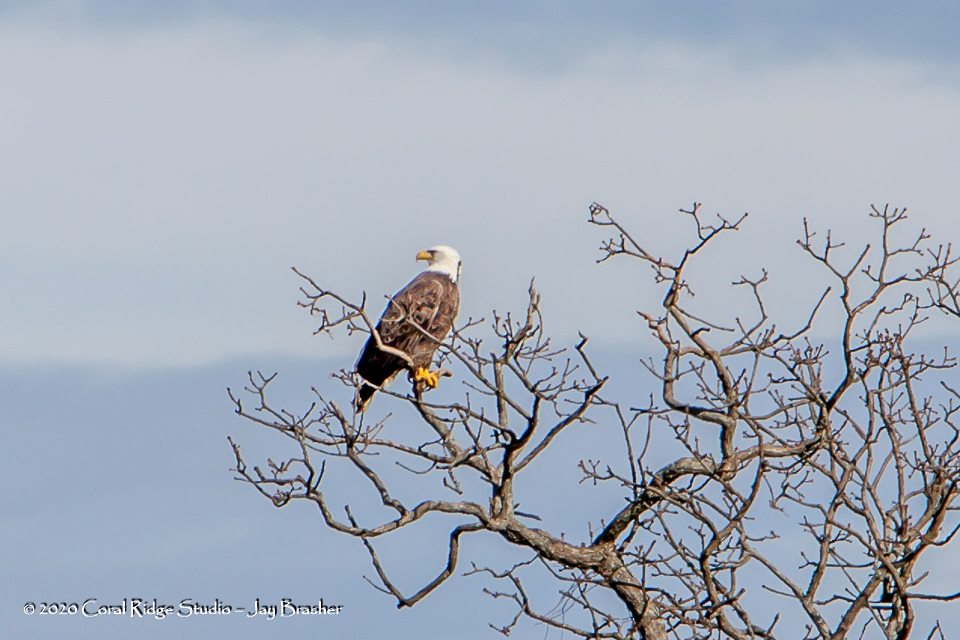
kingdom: Animalia
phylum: Chordata
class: Aves
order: Accipitriformes
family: Accipitridae
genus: Haliaeetus
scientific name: Haliaeetus leucocephalus
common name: Bald eagle
